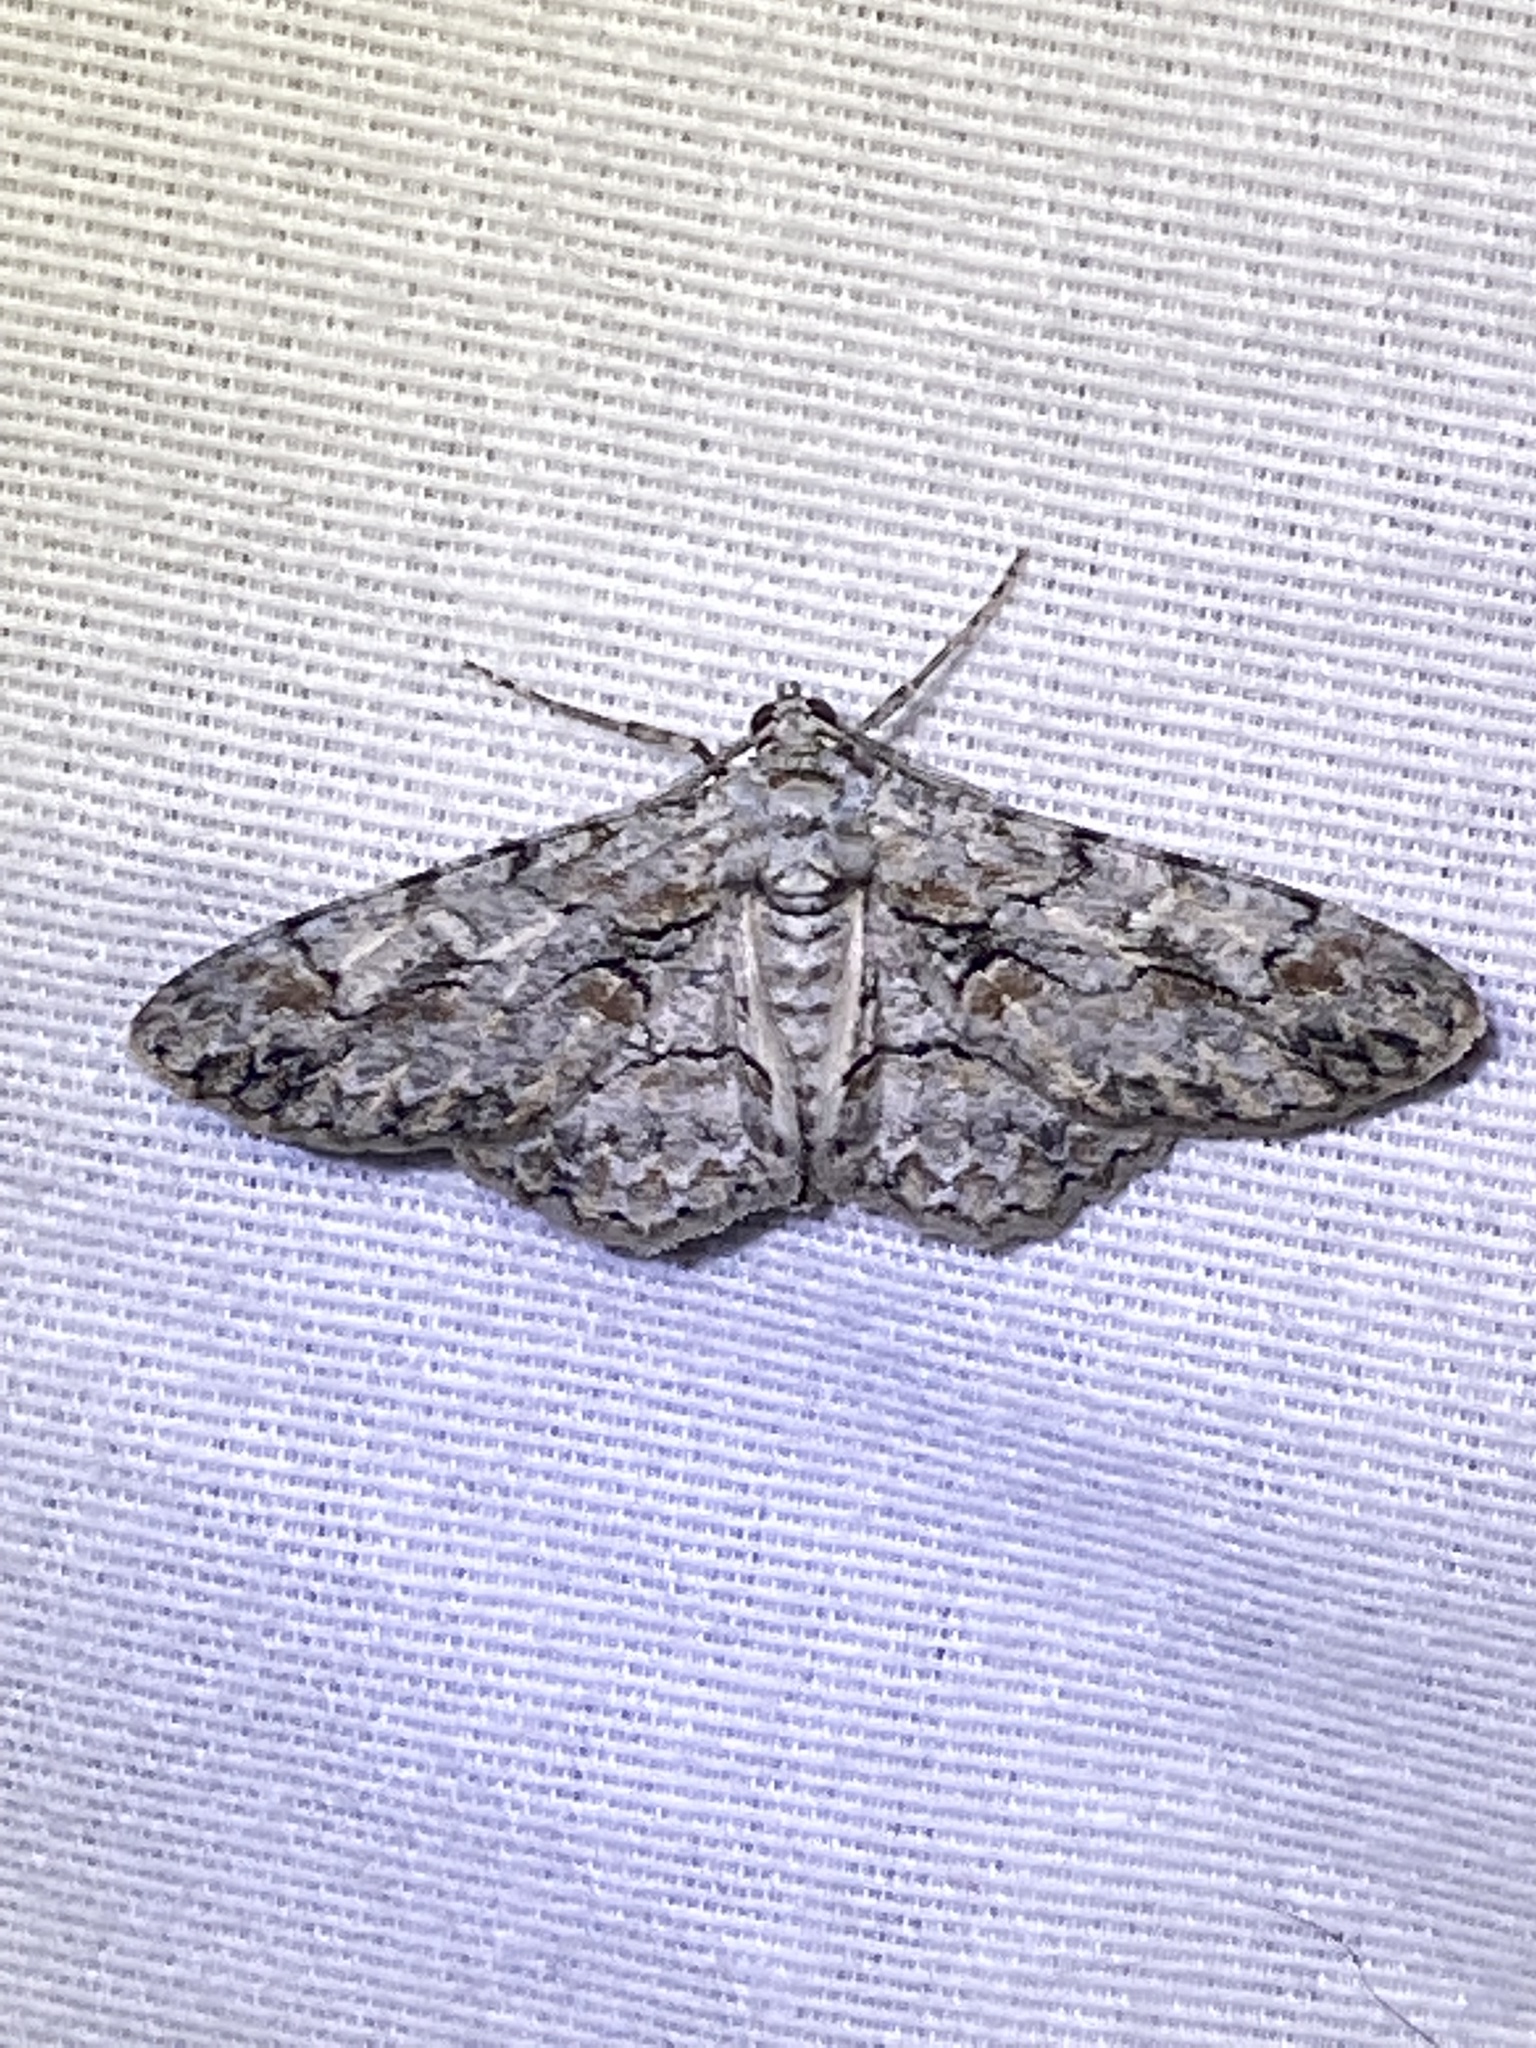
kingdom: Animalia
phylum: Arthropoda
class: Insecta
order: Lepidoptera
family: Geometridae
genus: Iridopsis
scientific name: Iridopsis defectaria
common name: Brown-shaded gray
